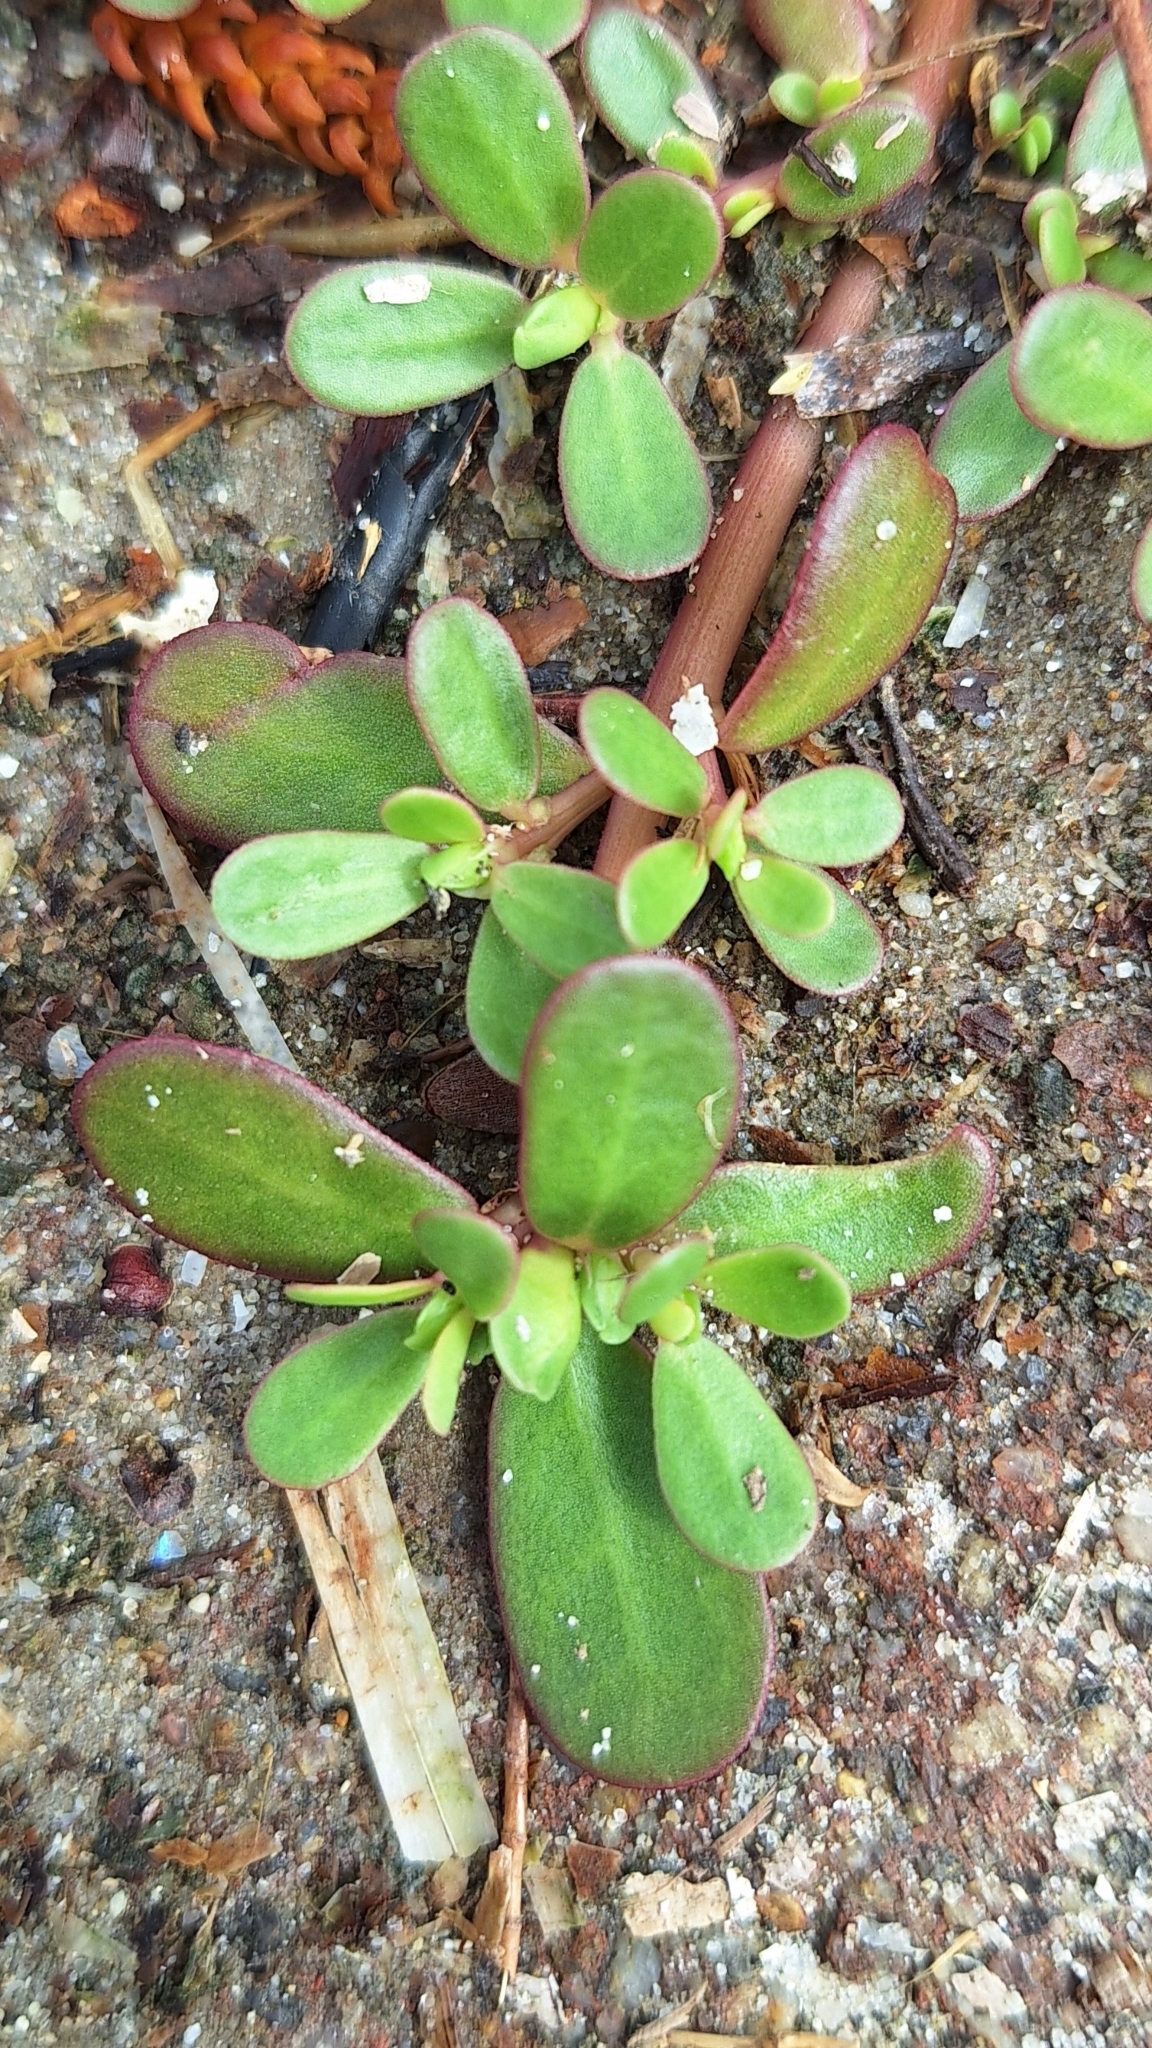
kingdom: Plantae
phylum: Tracheophyta
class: Magnoliopsida
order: Caryophyllales
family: Portulacaceae
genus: Portulaca
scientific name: Portulaca oleracea
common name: Common purslane
